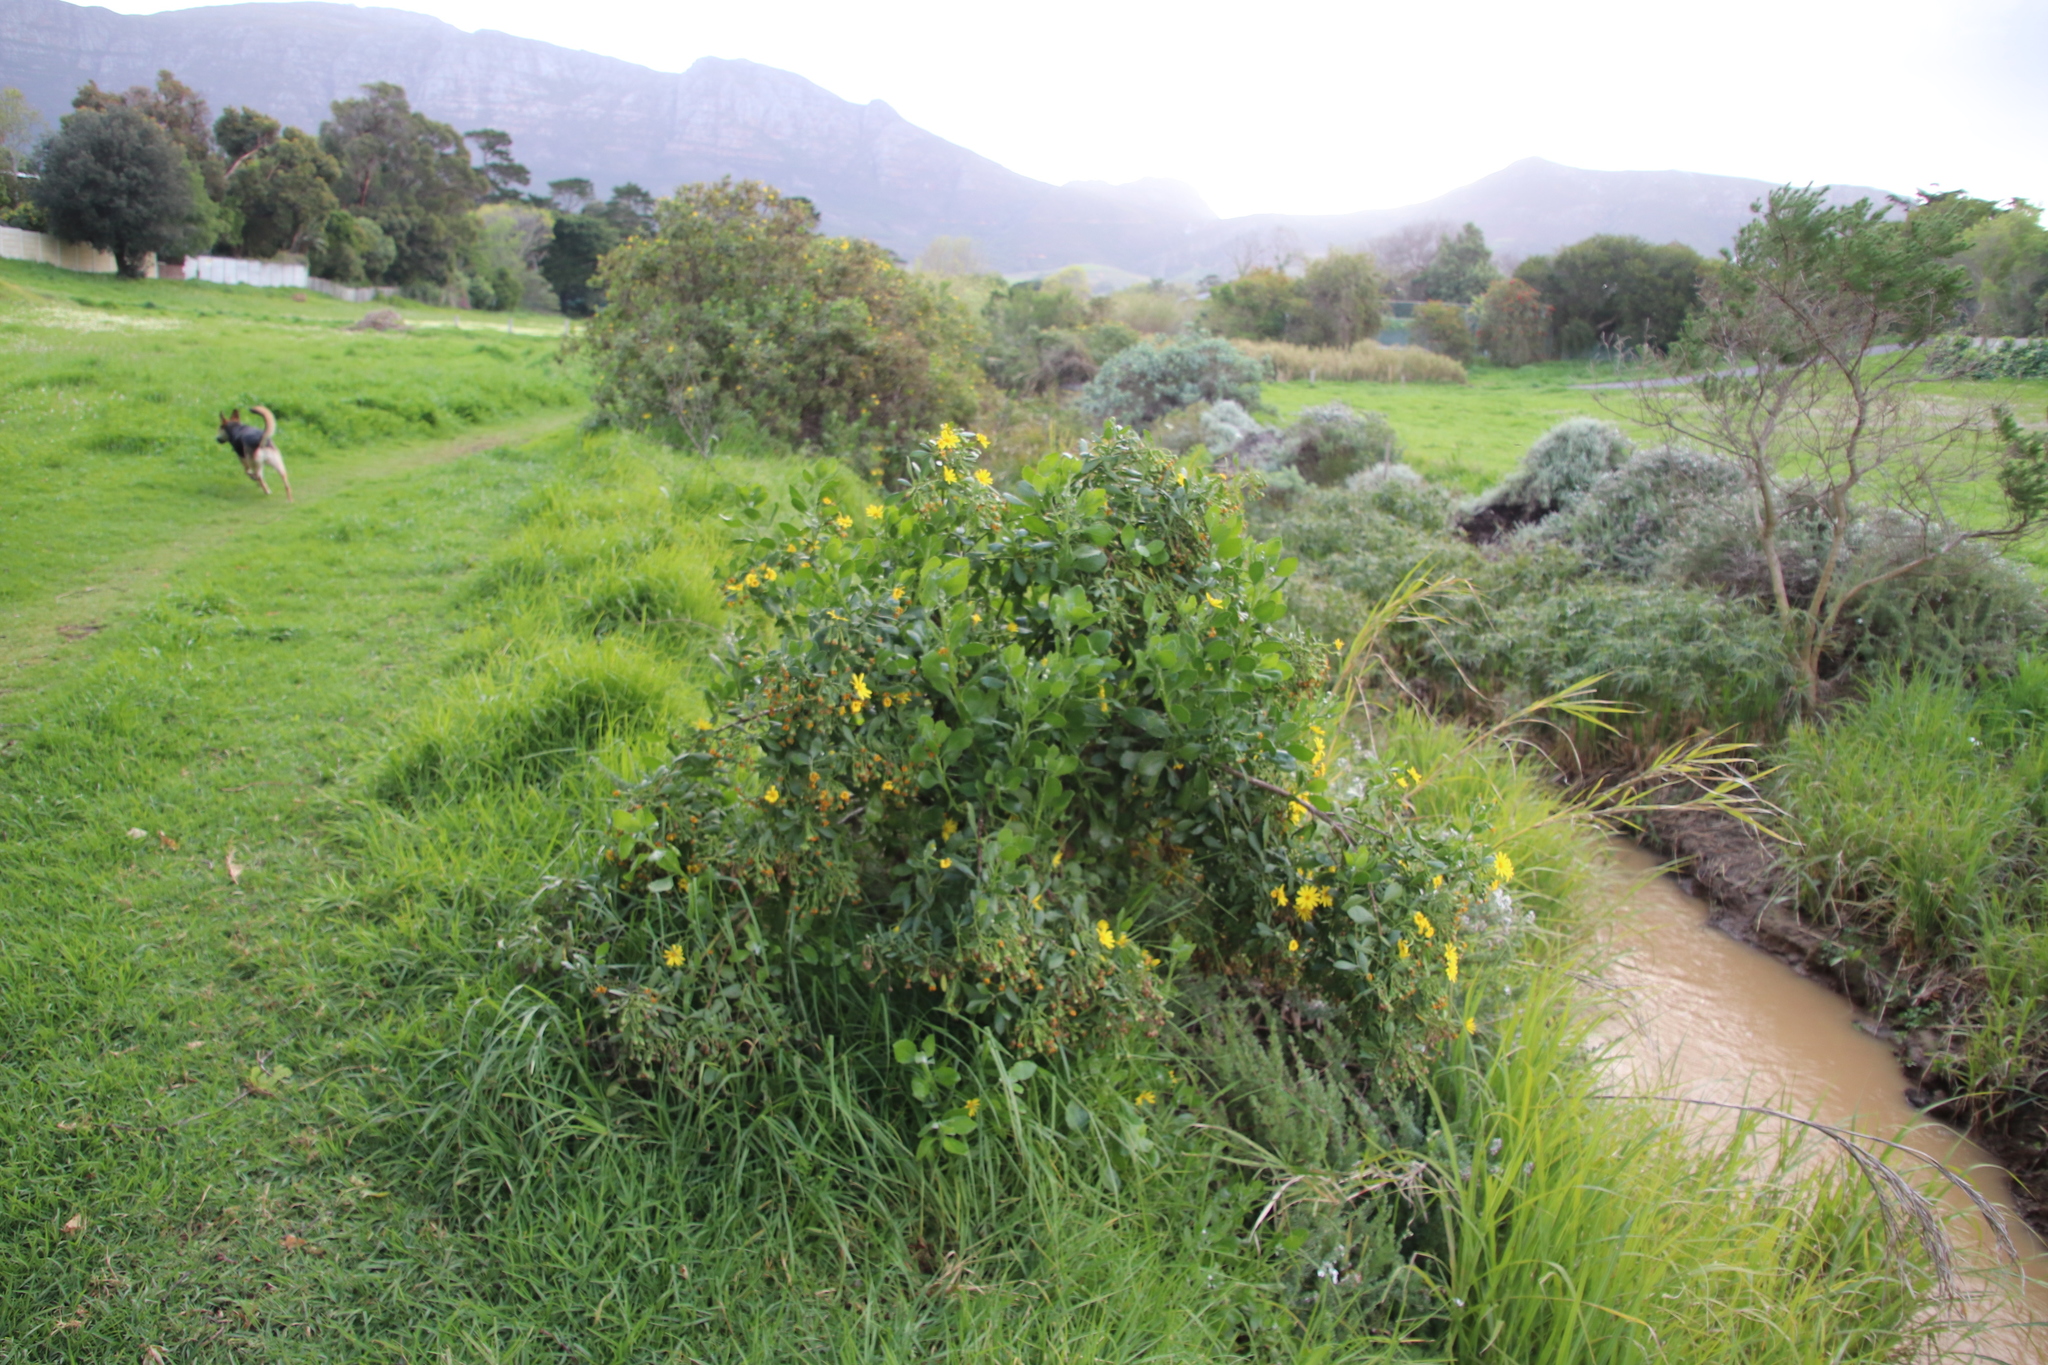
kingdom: Plantae
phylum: Tracheophyta
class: Magnoliopsida
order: Asterales
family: Asteraceae
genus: Osteospermum
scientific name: Osteospermum moniliferum
